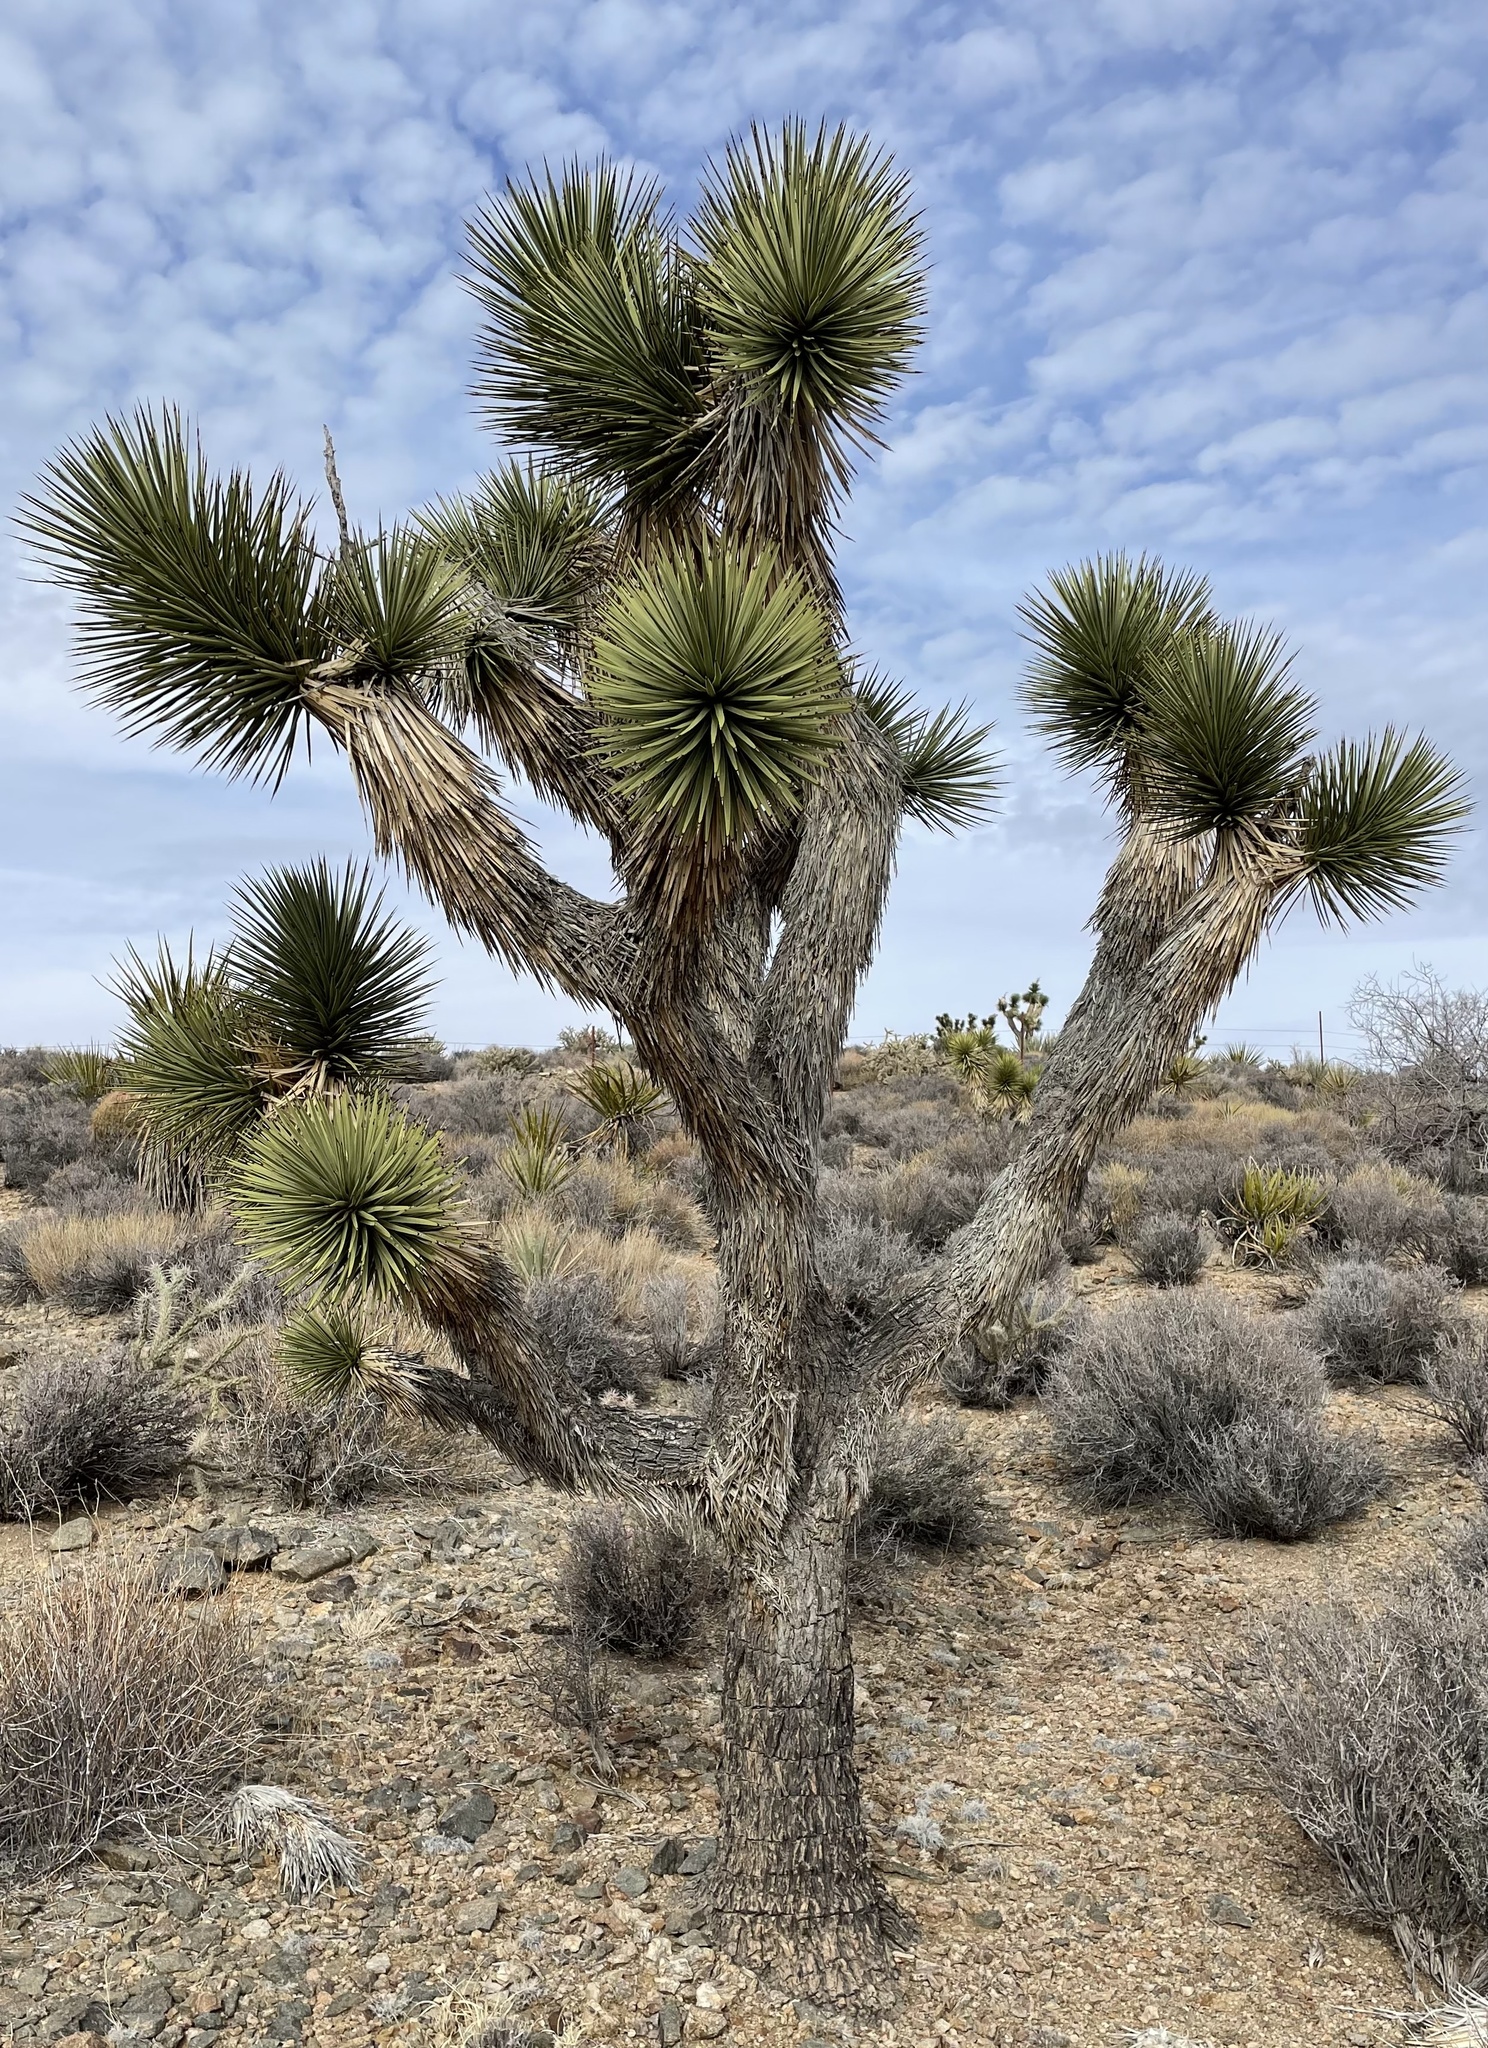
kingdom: Plantae
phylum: Tracheophyta
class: Liliopsida
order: Asparagales
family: Asparagaceae
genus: Yucca
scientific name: Yucca brevifolia
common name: Joshua tree
